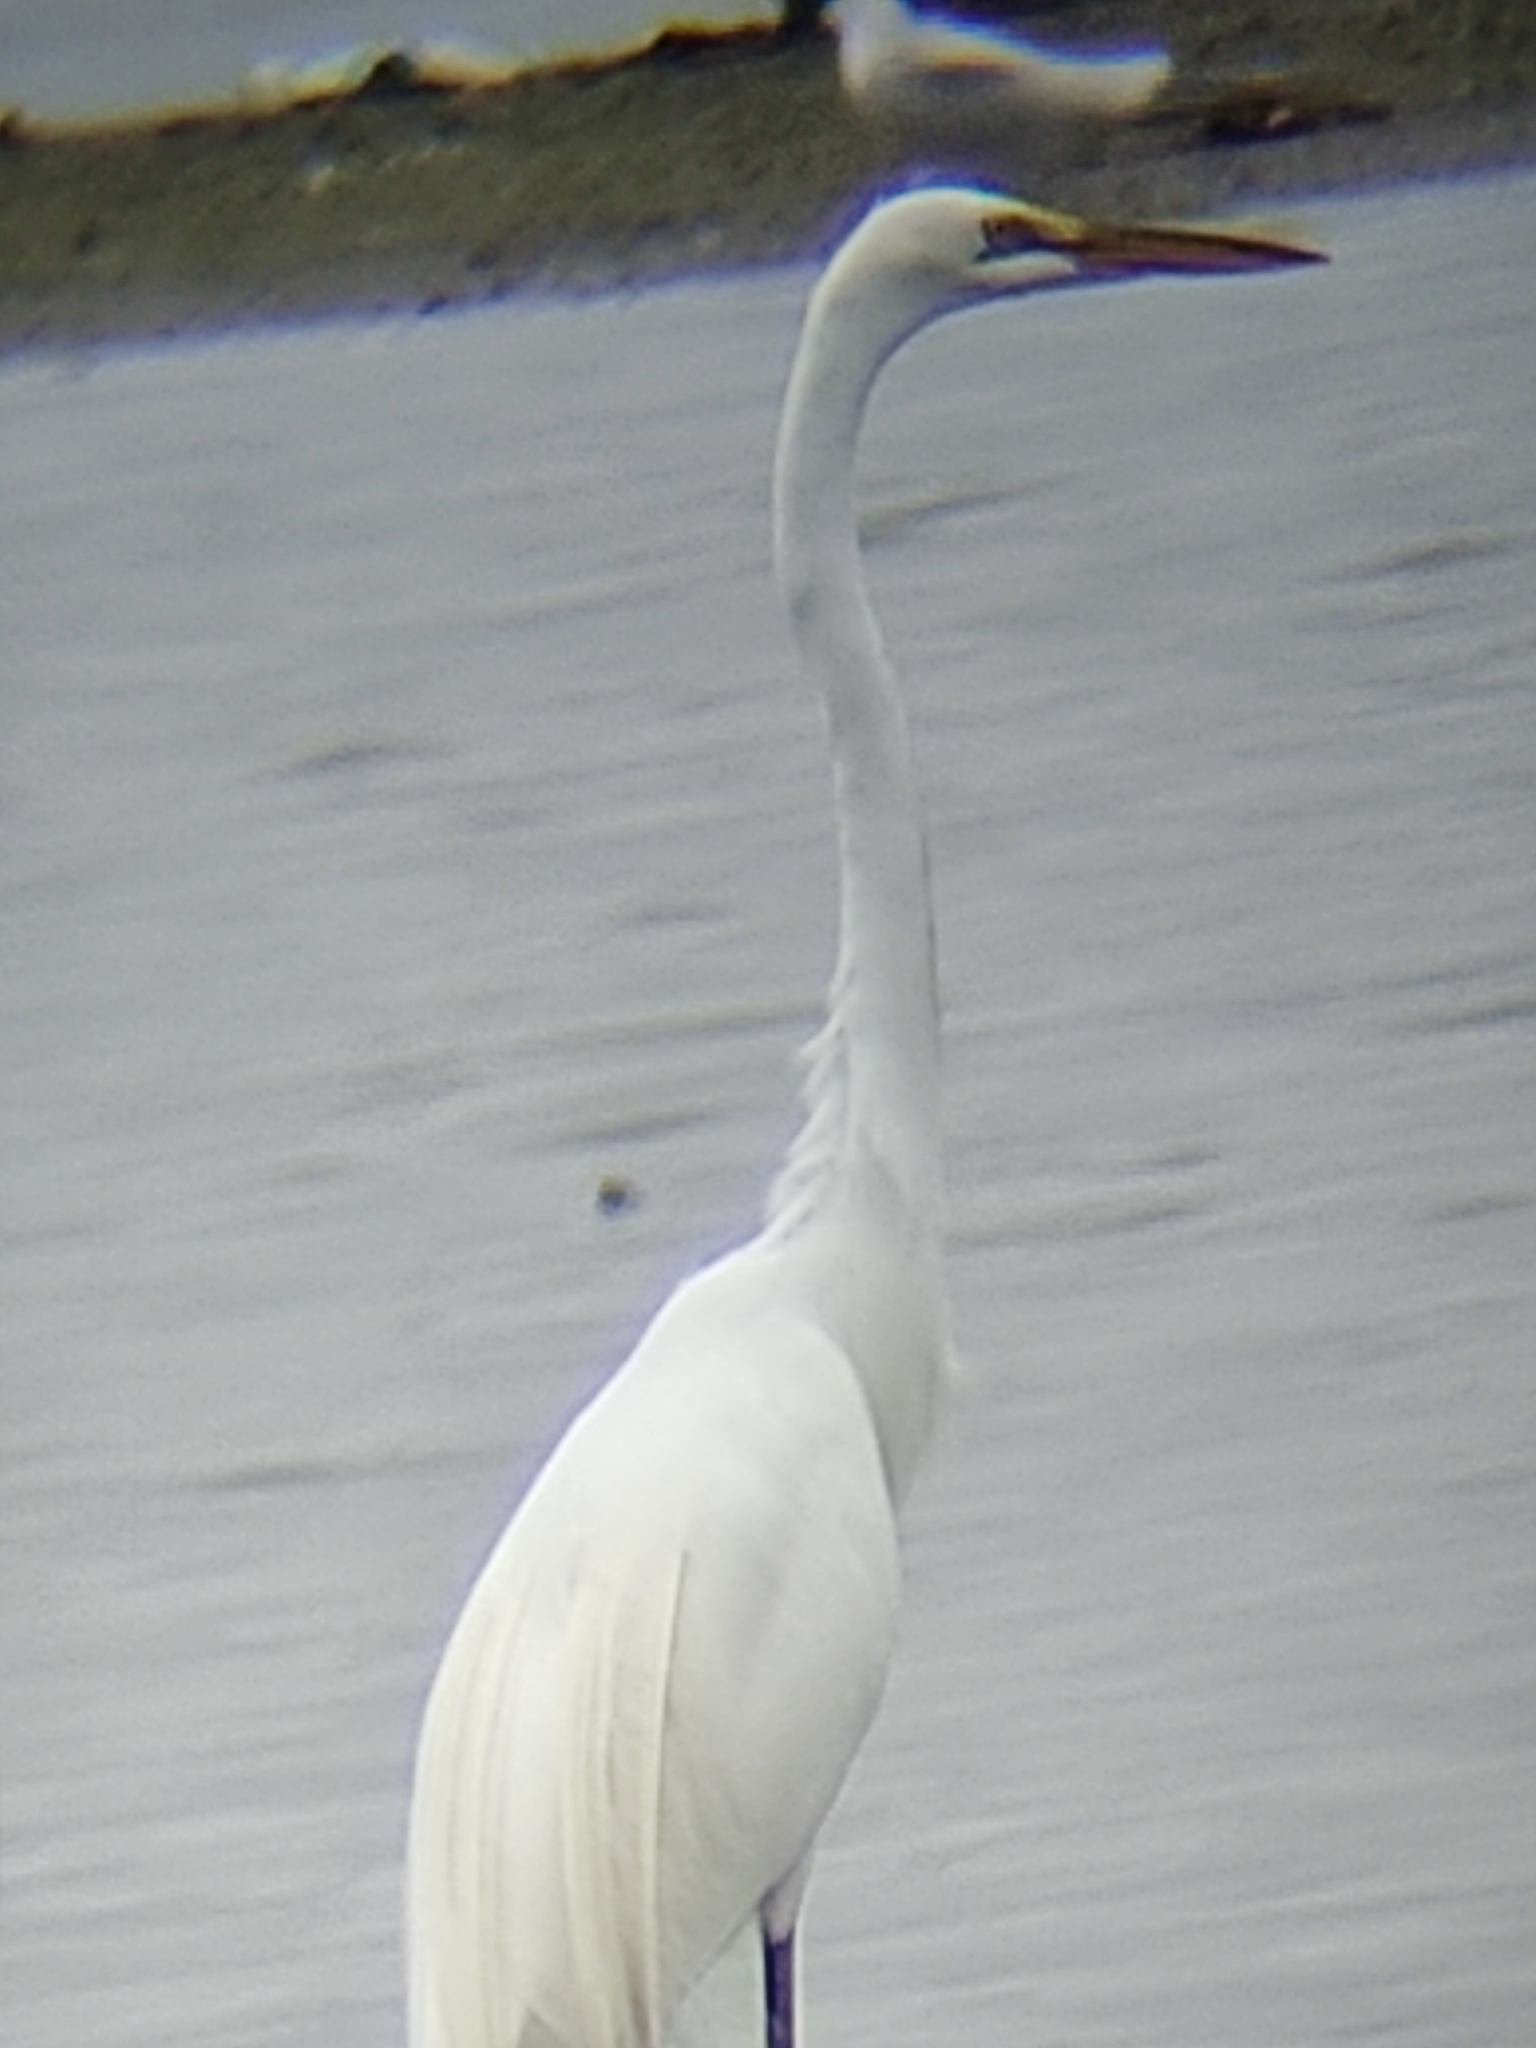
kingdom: Animalia
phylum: Chordata
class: Aves
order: Pelecaniformes
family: Ardeidae
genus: Ardea
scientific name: Ardea alba
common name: Great egret
